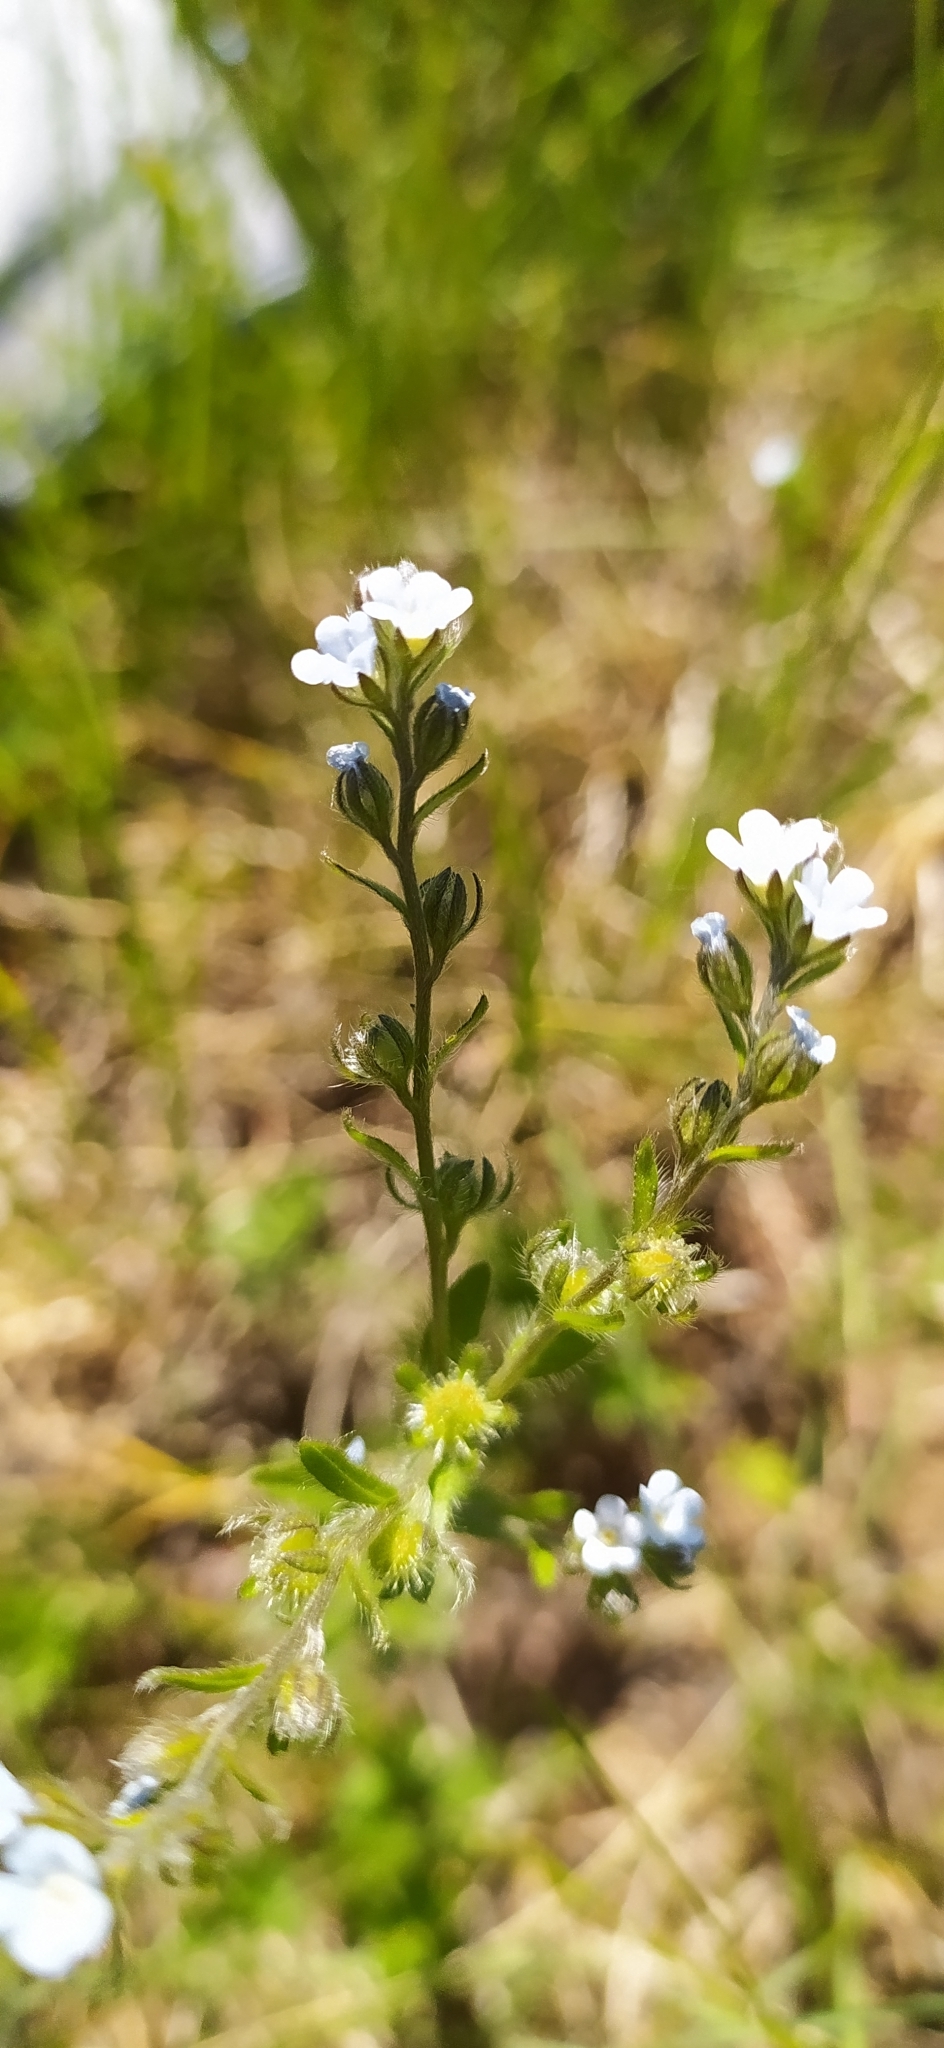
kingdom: Plantae
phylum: Tracheophyta
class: Magnoliopsida
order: Boraginales
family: Boraginaceae
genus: Lappula
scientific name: Lappula squarrosa
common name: European stickseed
